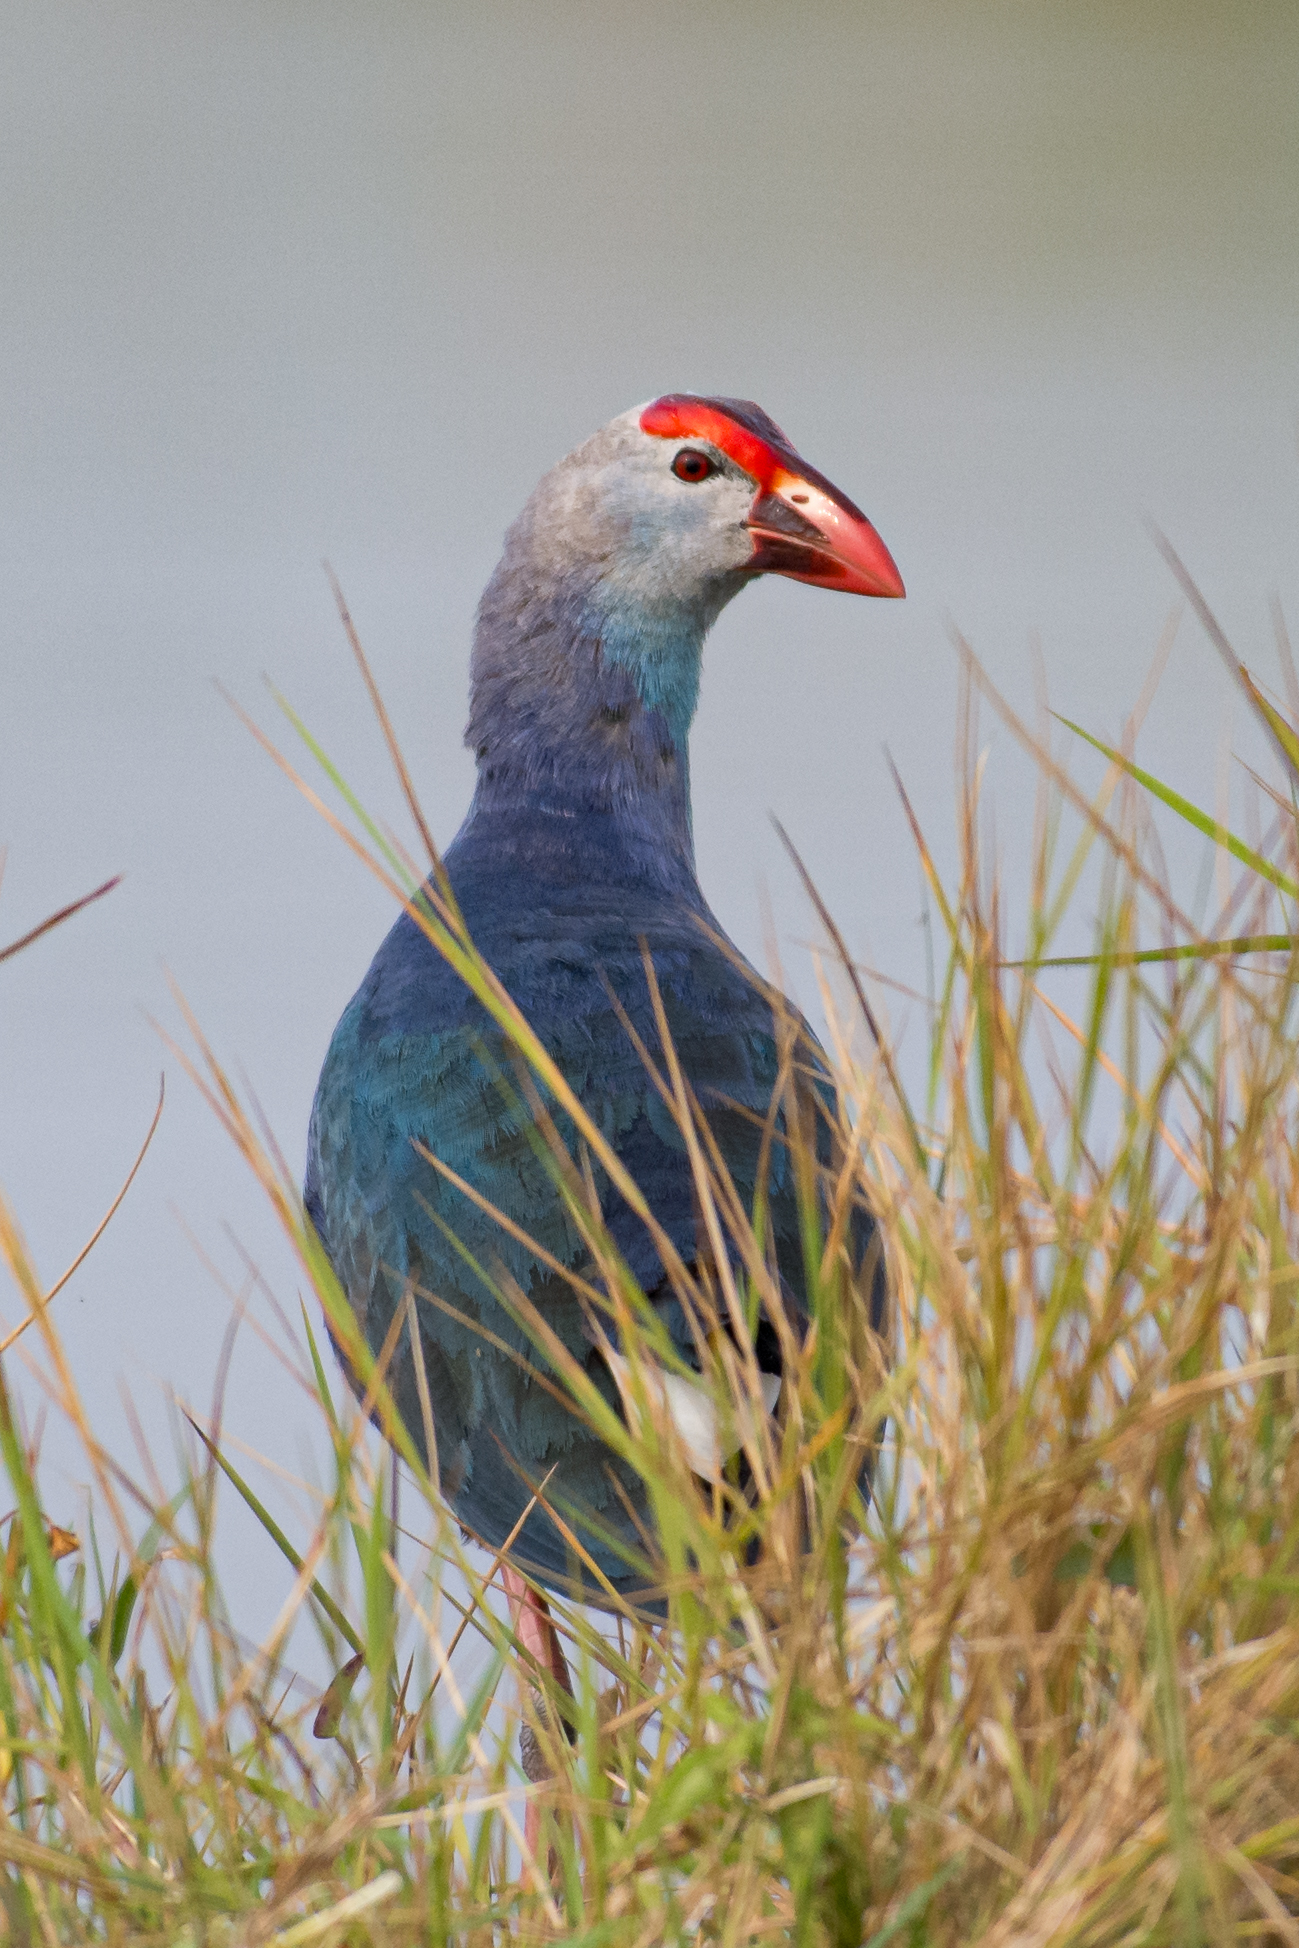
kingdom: Animalia
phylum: Chordata
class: Aves
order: Gruiformes
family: Rallidae
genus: Porphyrio
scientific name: Porphyrio porphyrio
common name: Purple swamphen
